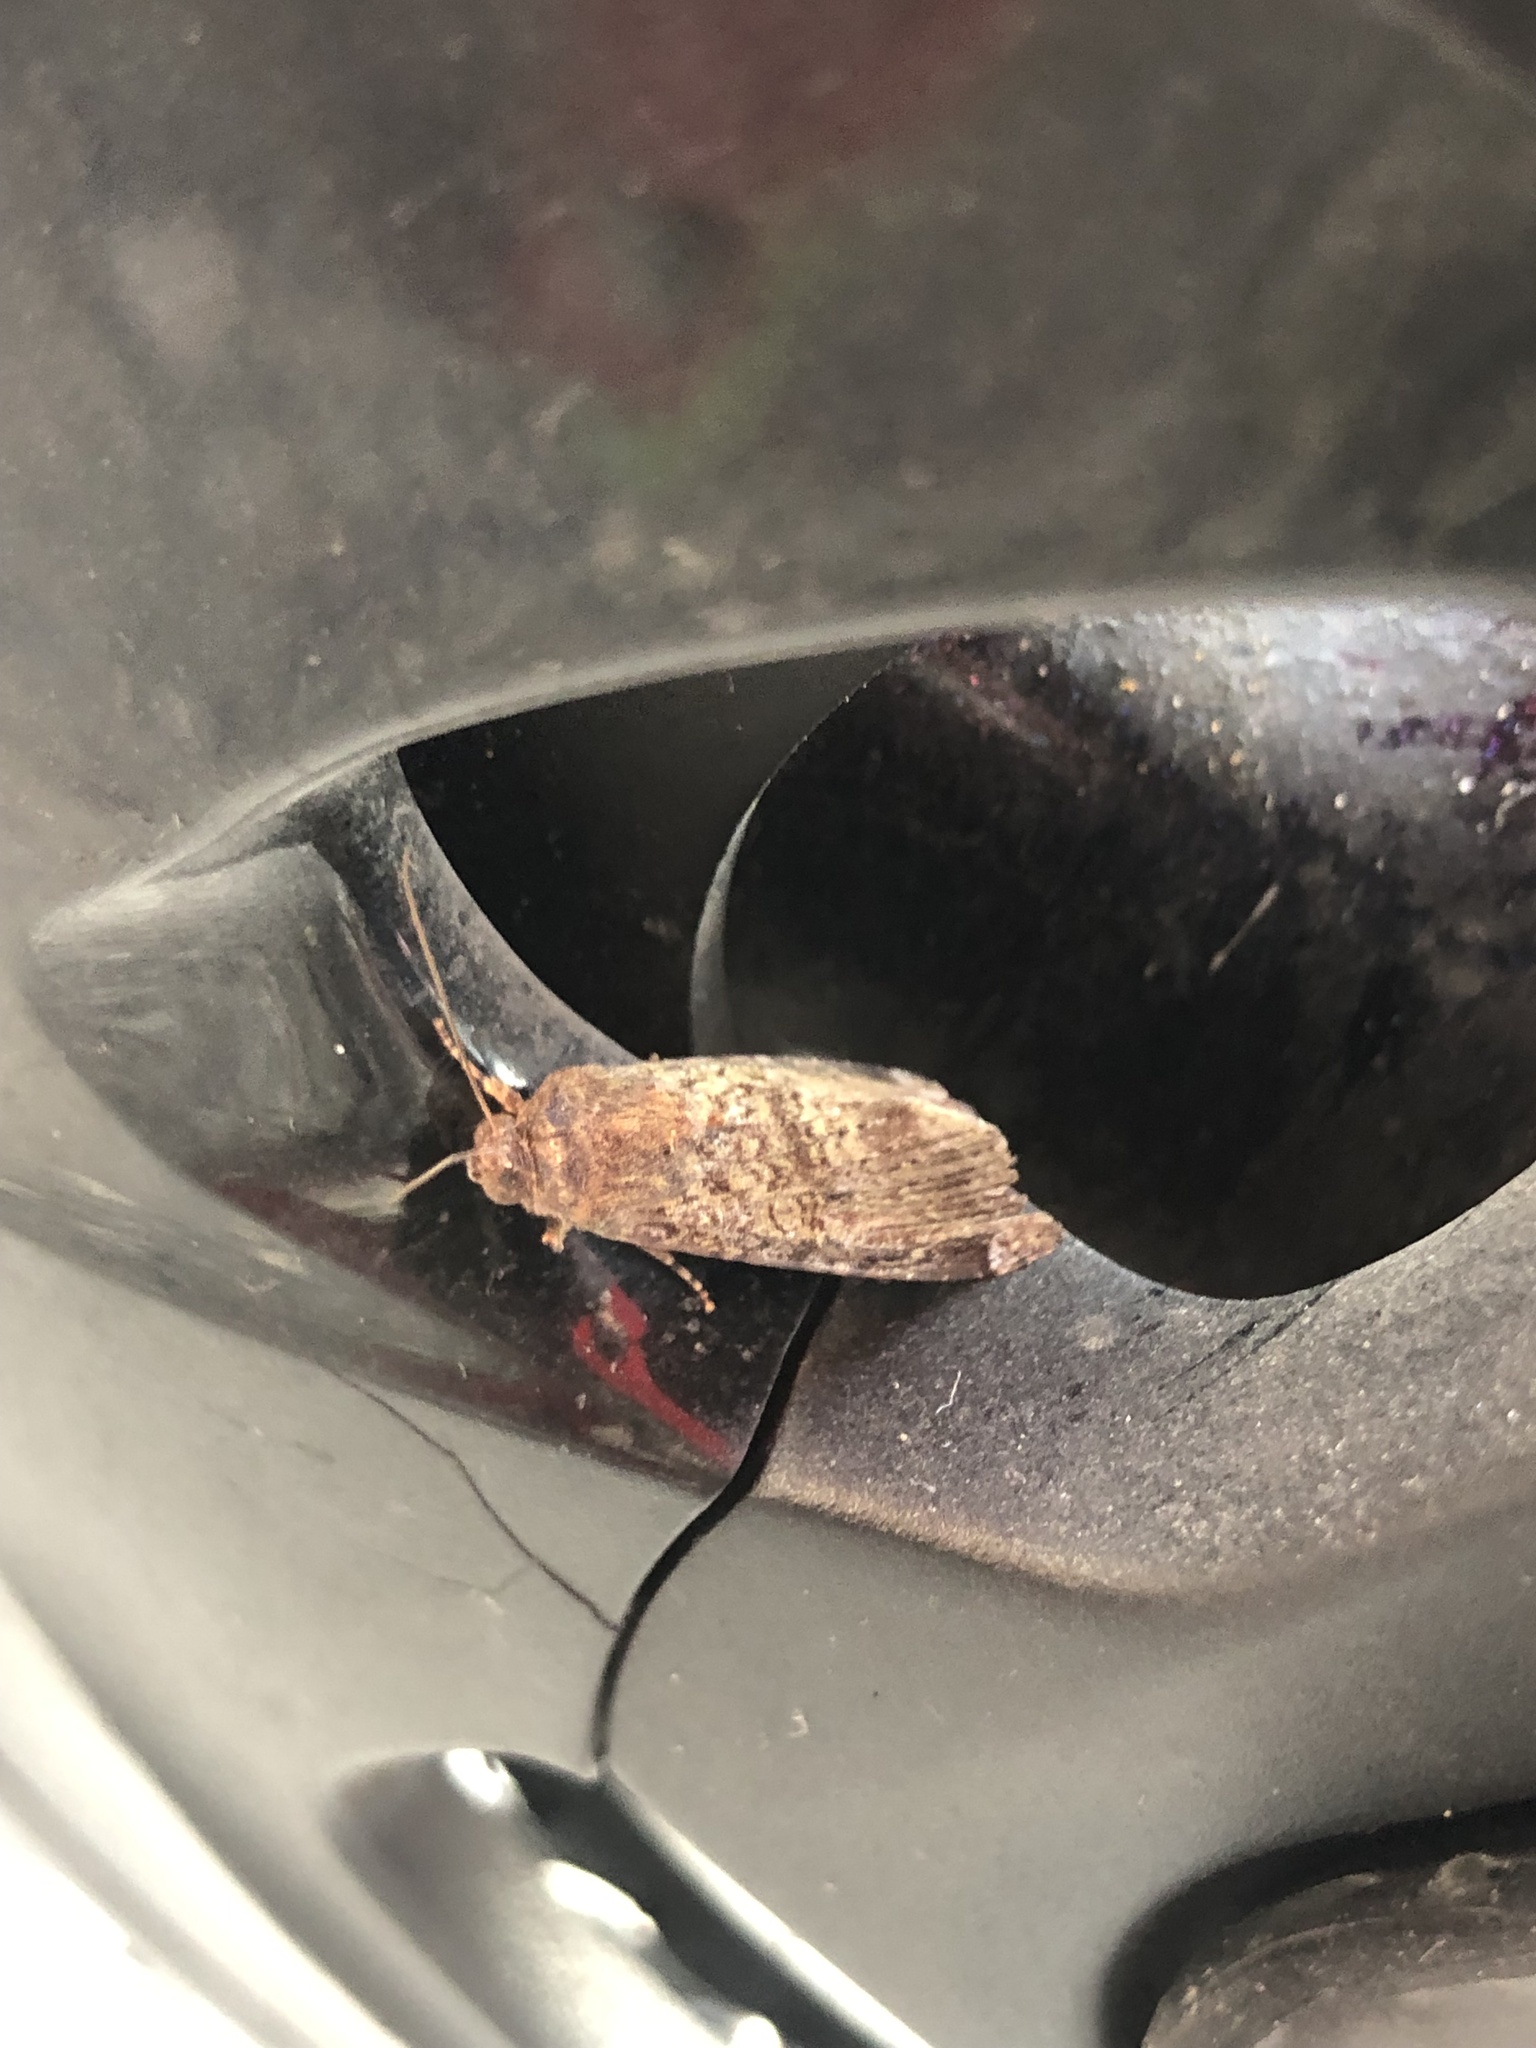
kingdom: Animalia
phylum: Arthropoda
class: Insecta
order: Lepidoptera
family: Noctuidae
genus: Magusa
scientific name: Magusa divaricata
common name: Orb narrow-winged moth
